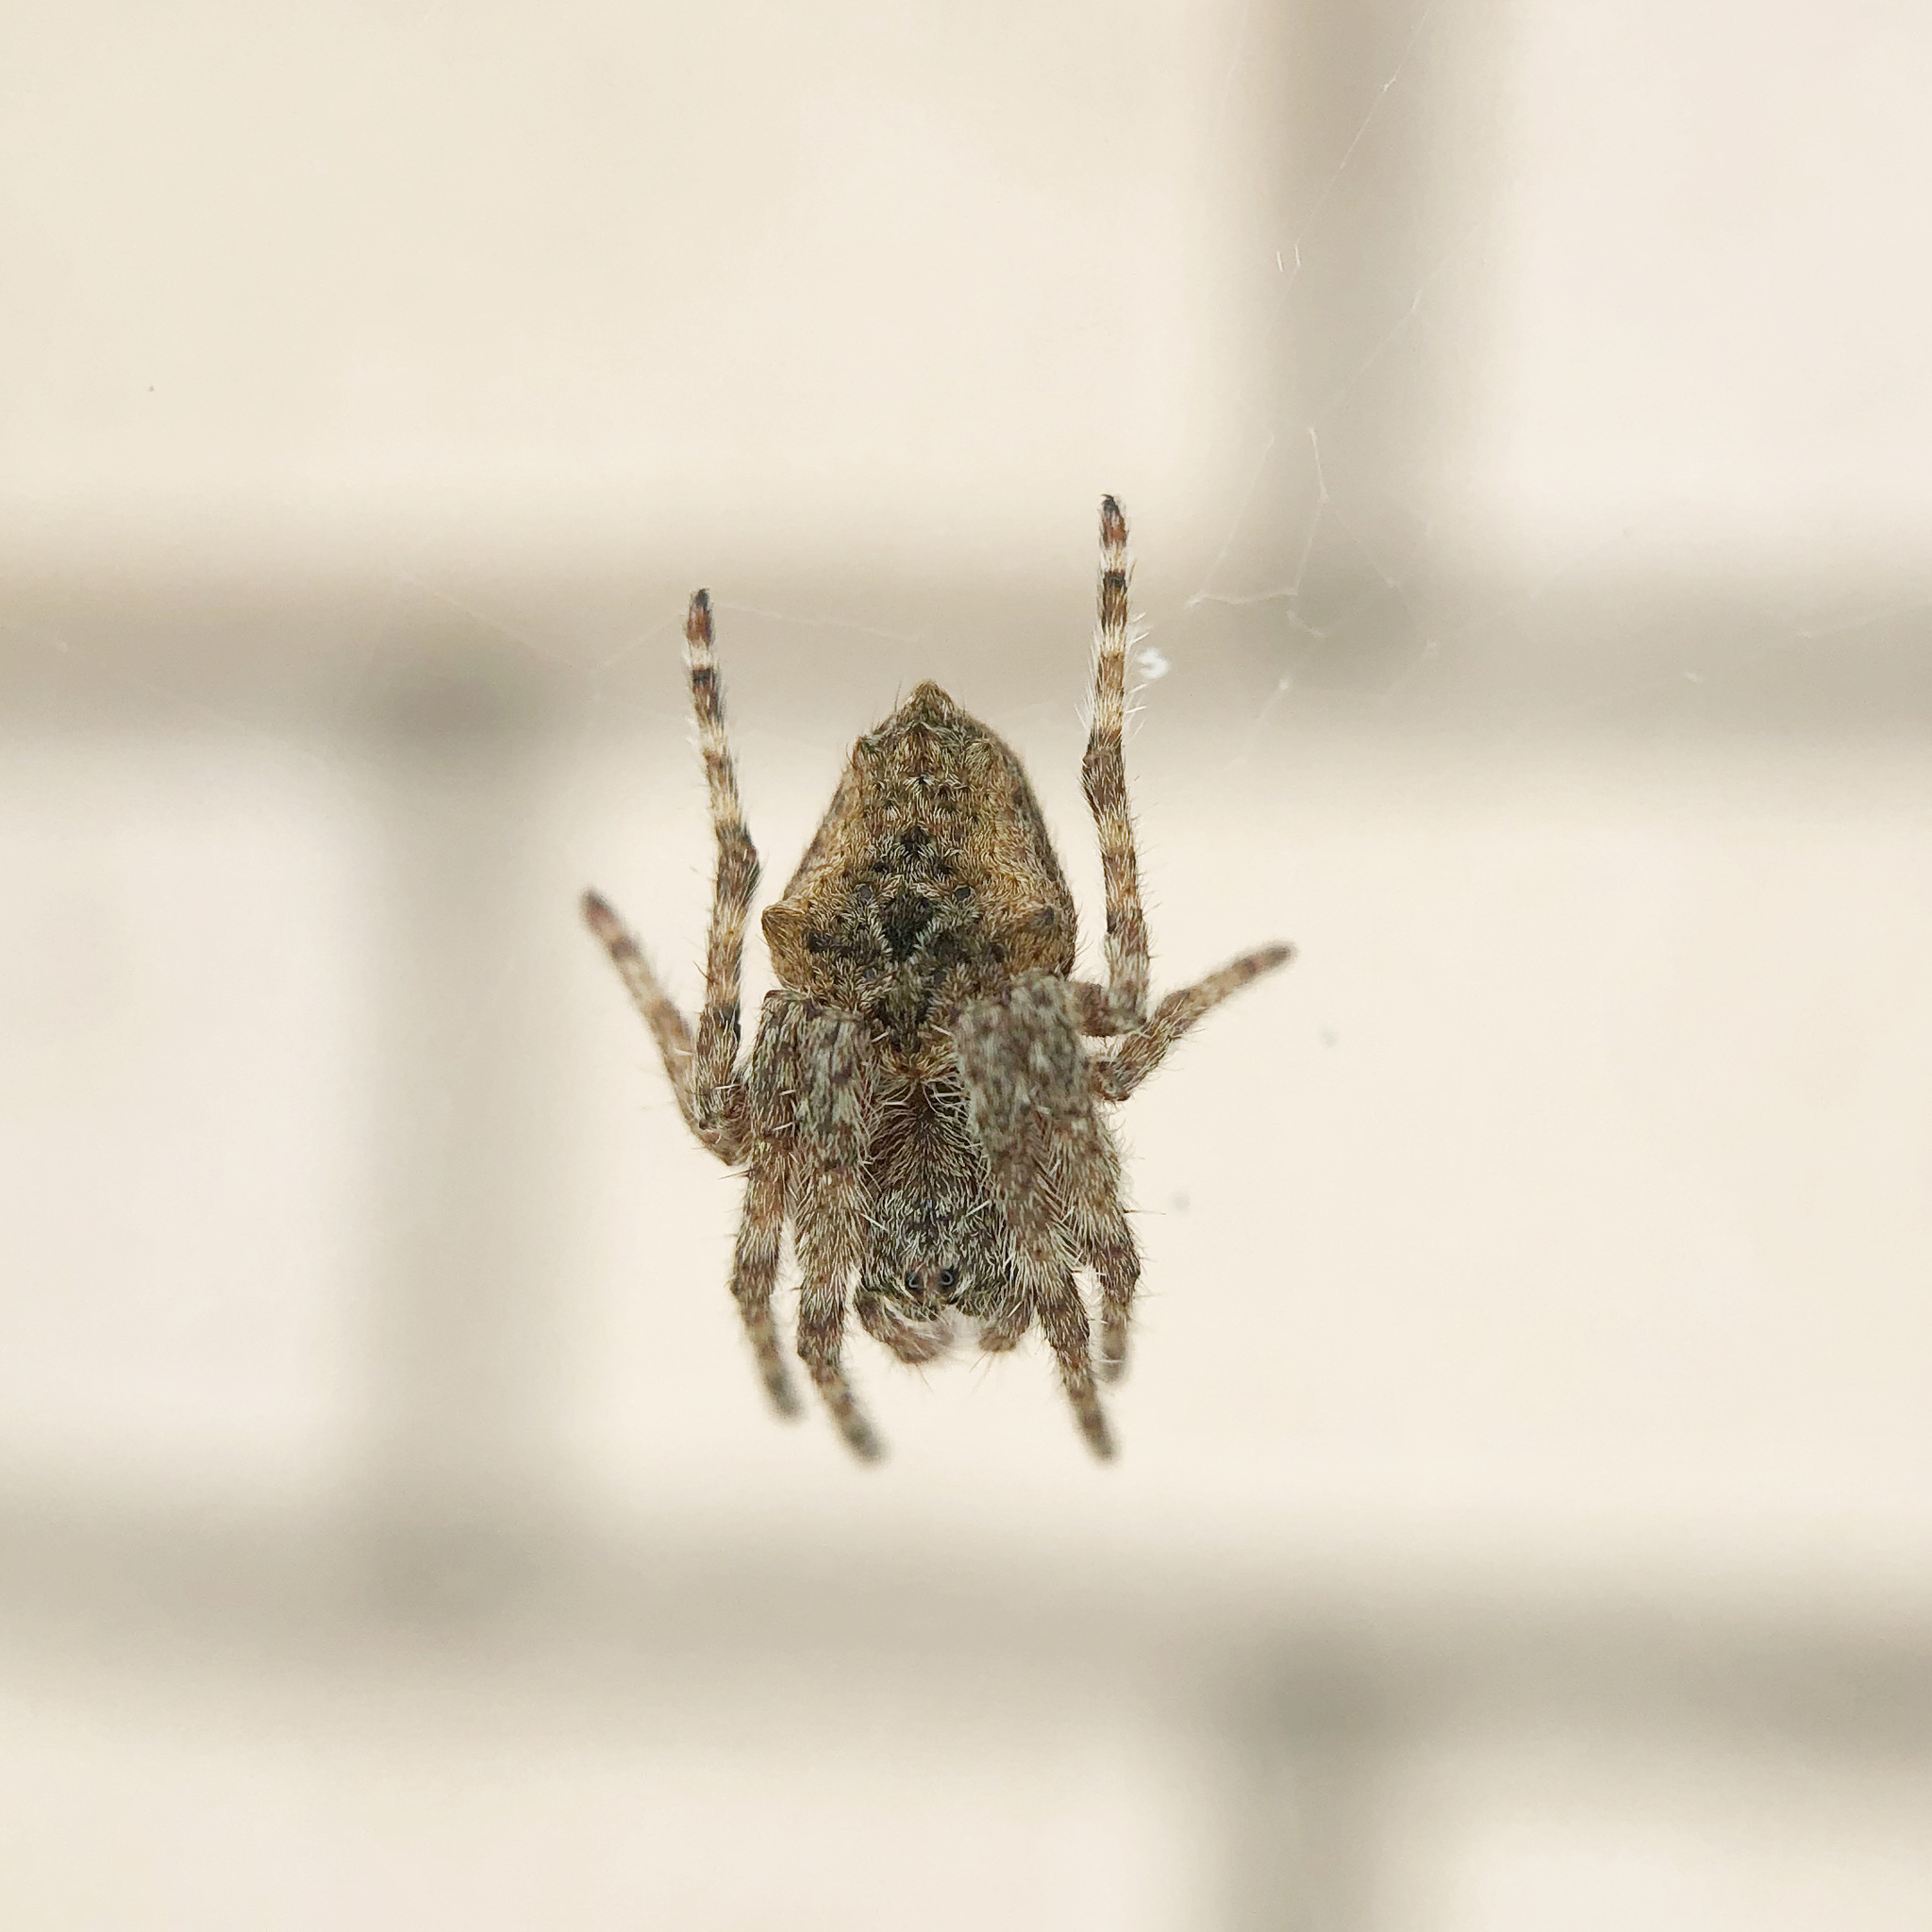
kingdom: Animalia
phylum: Arthropoda
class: Arachnida
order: Araneae
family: Araneidae
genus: Eriophora
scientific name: Eriophora pustulosa
